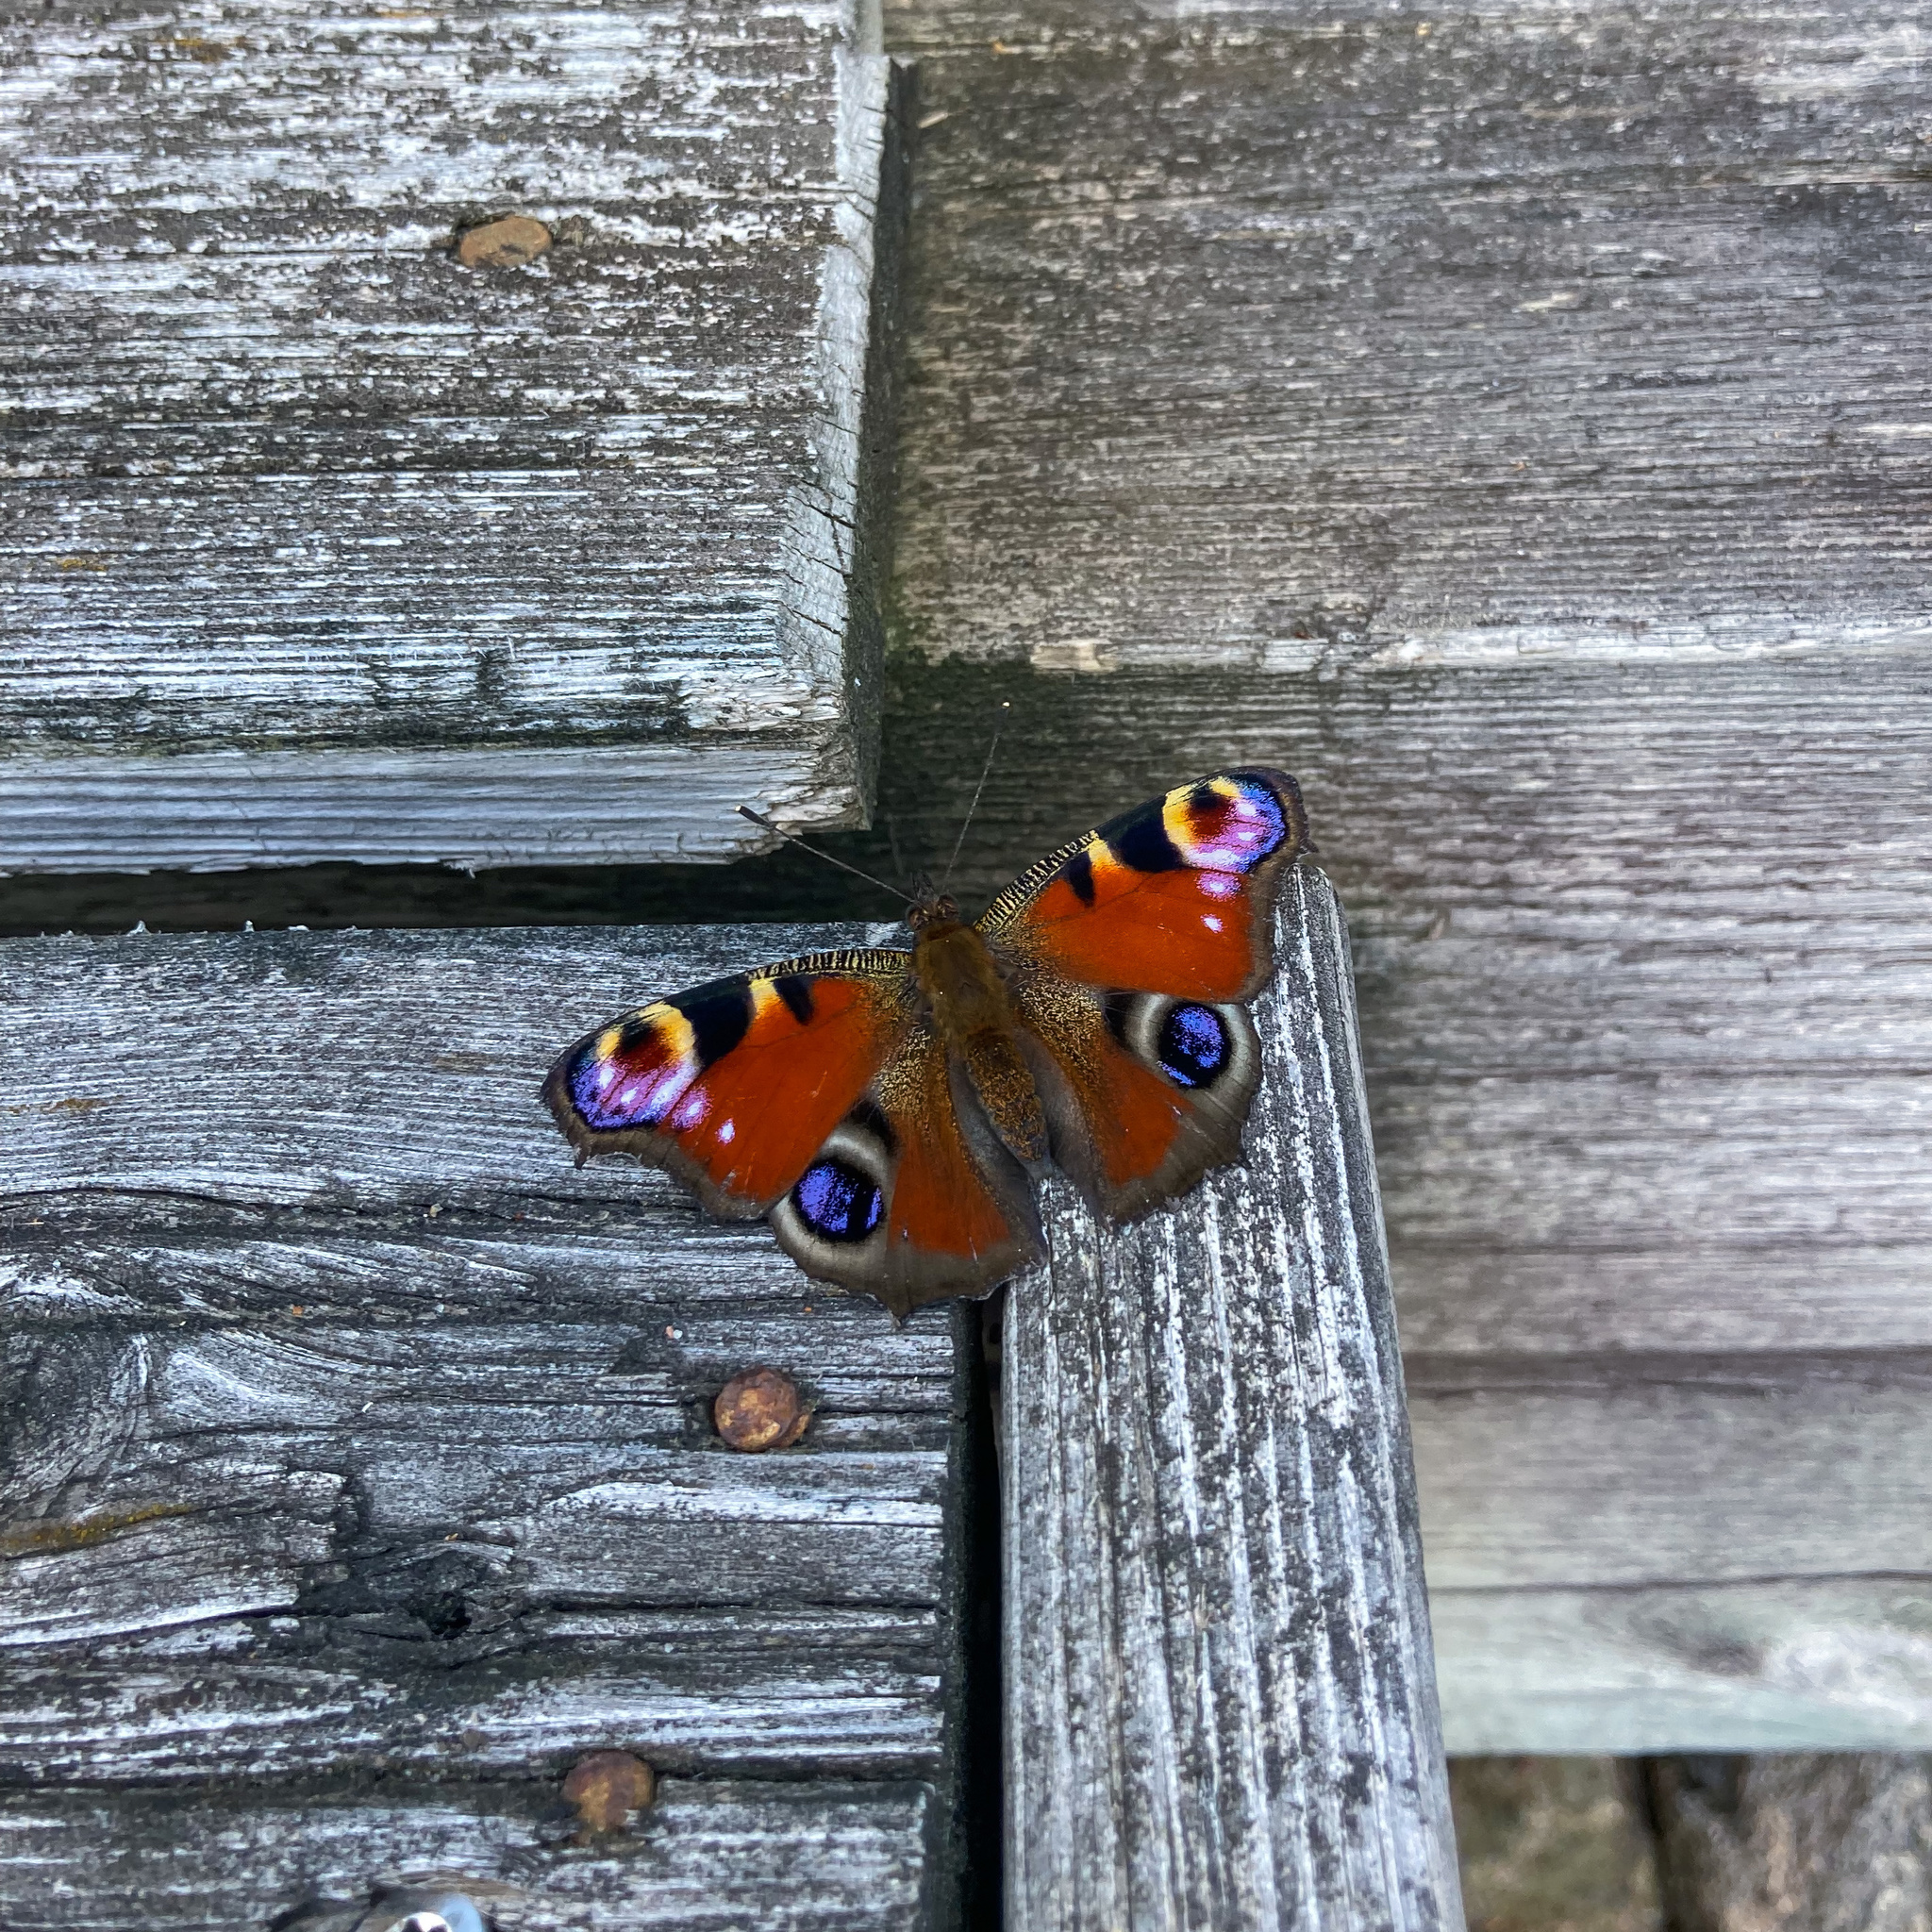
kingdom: Animalia
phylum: Arthropoda
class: Insecta
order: Lepidoptera
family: Nymphalidae
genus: Aglais
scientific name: Aglais io
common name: Peacock
